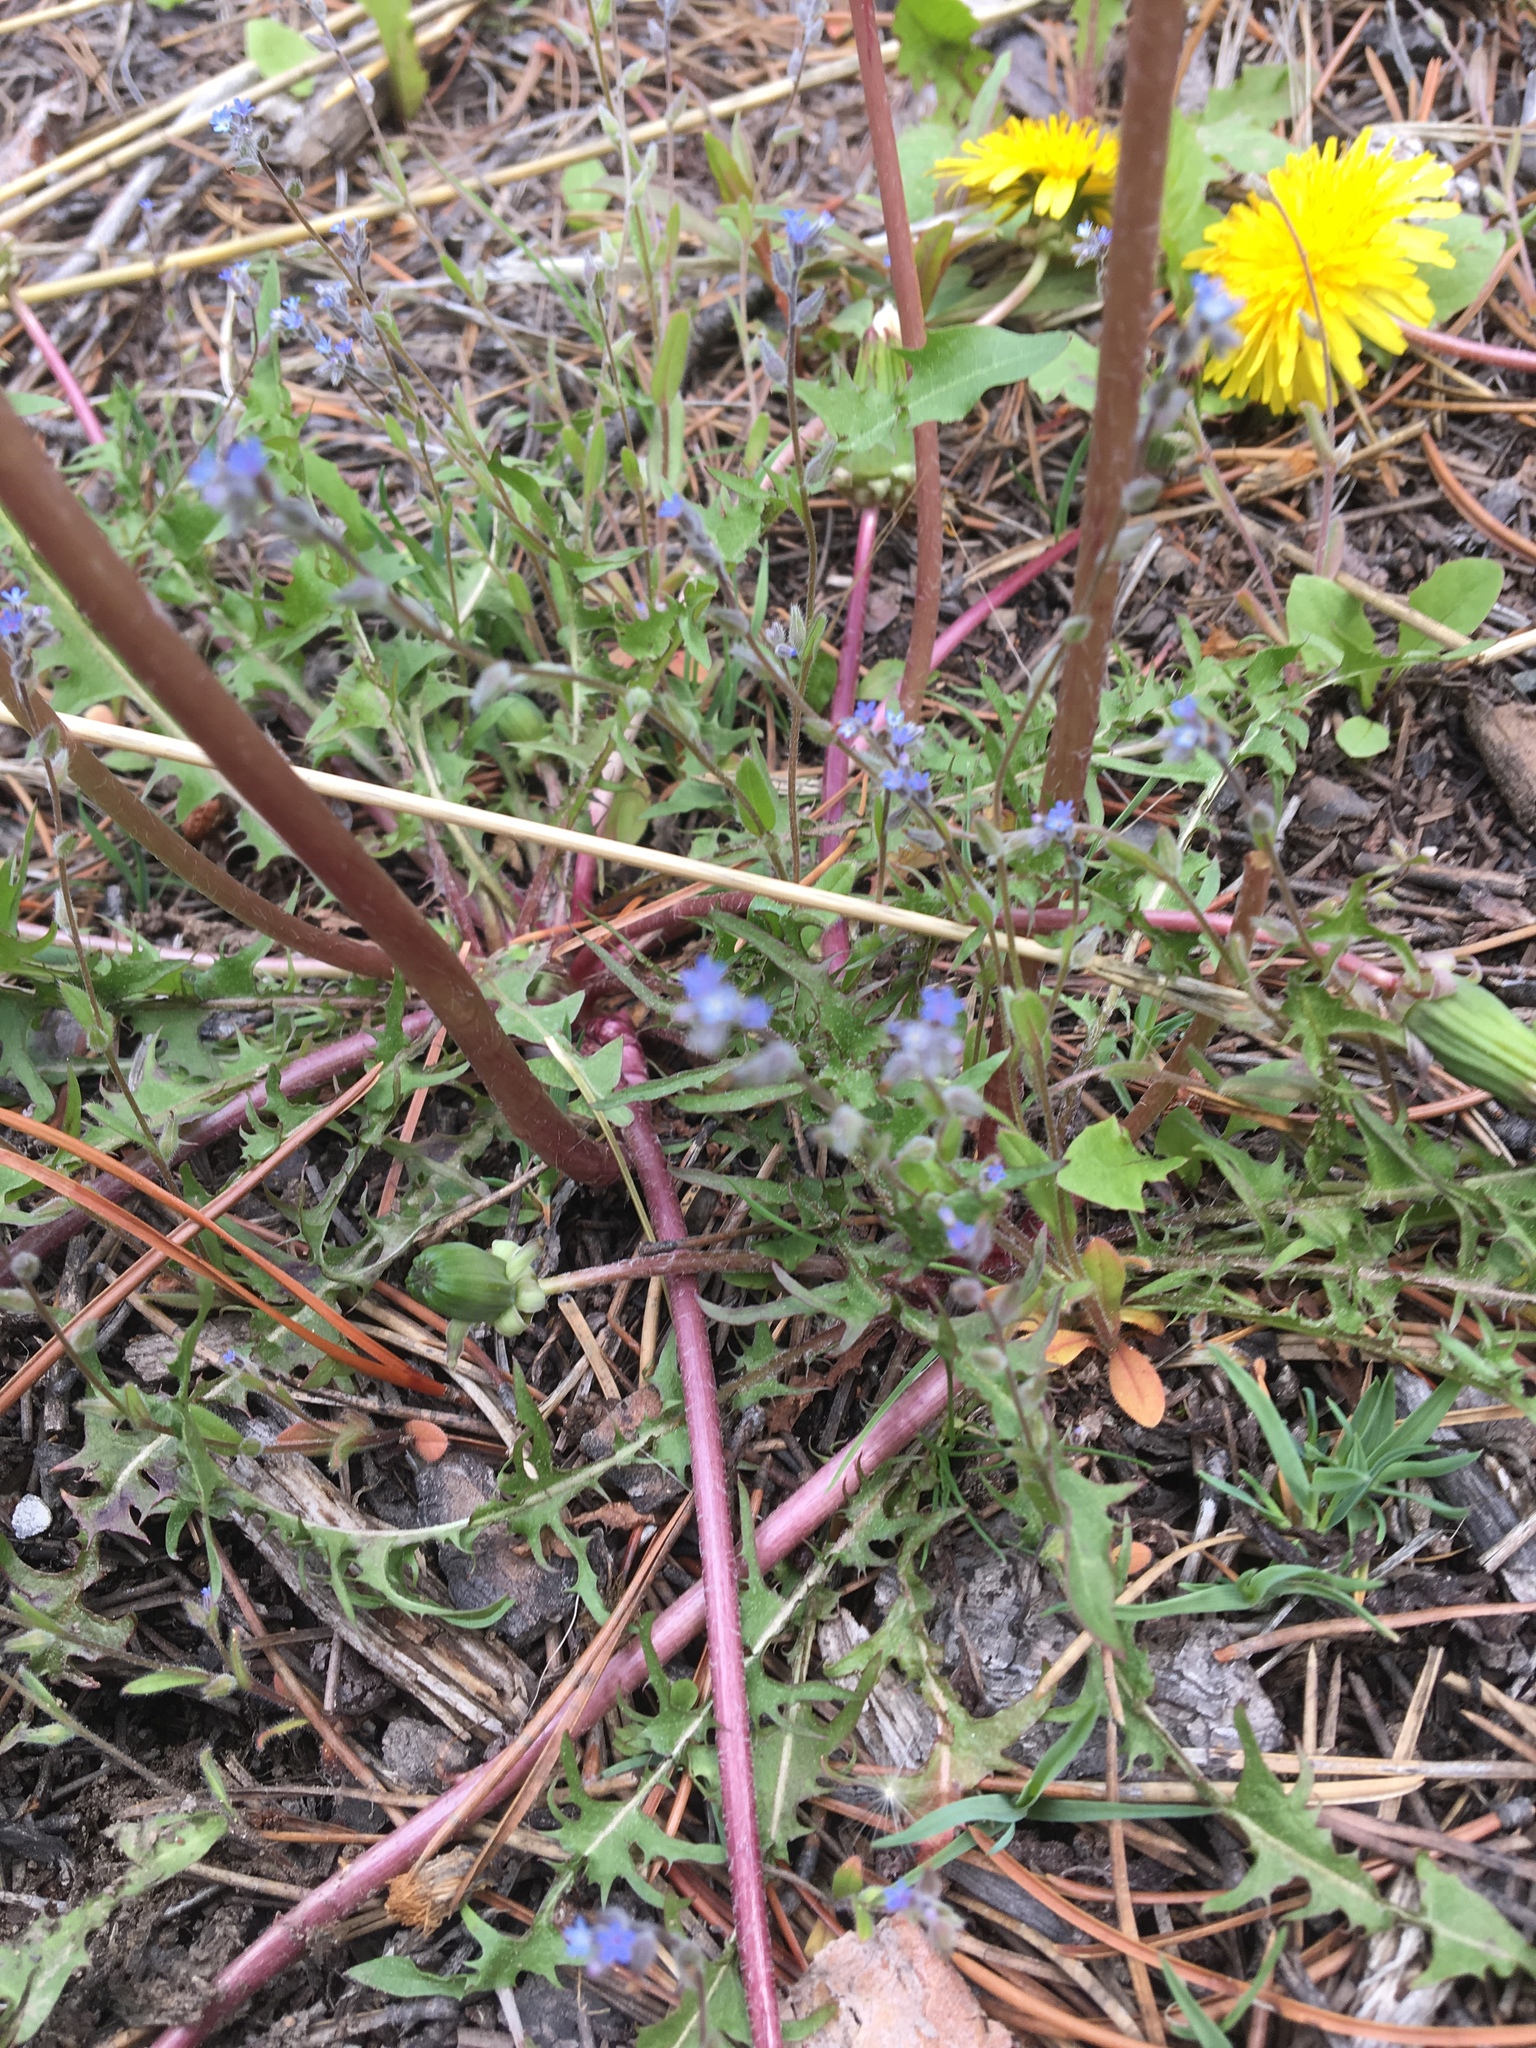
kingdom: Plantae
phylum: Tracheophyta
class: Magnoliopsida
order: Boraginales
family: Boraginaceae
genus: Lappula
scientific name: Lappula squarrosa
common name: European stickseed
